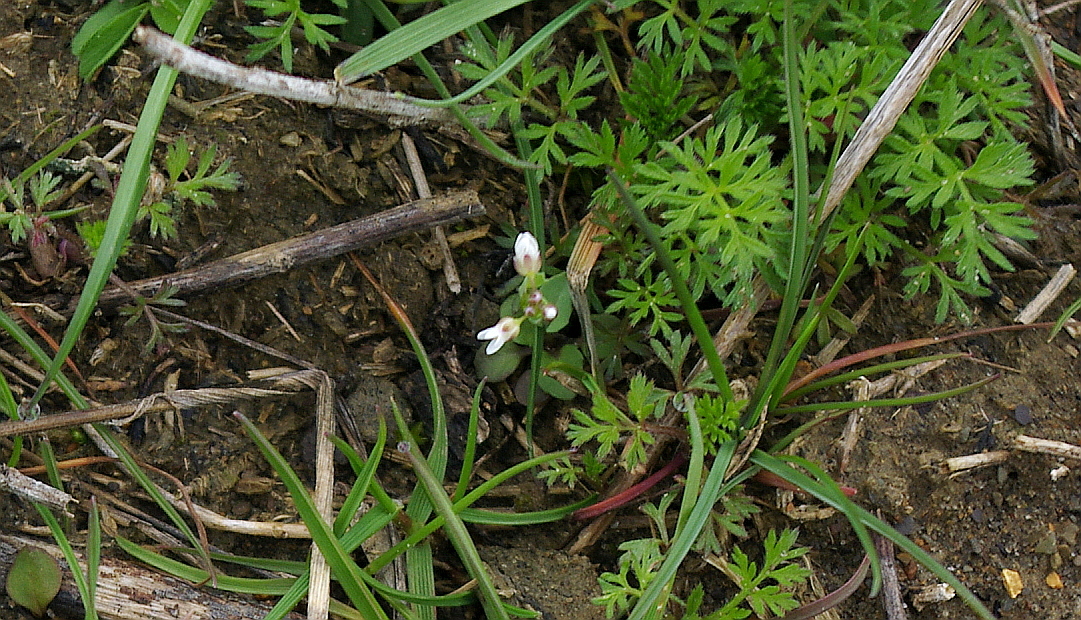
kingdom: Plantae
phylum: Tracheophyta
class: Magnoliopsida
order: Brassicales
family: Brassicaceae
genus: Draba
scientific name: Draba verna
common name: Spring draba
